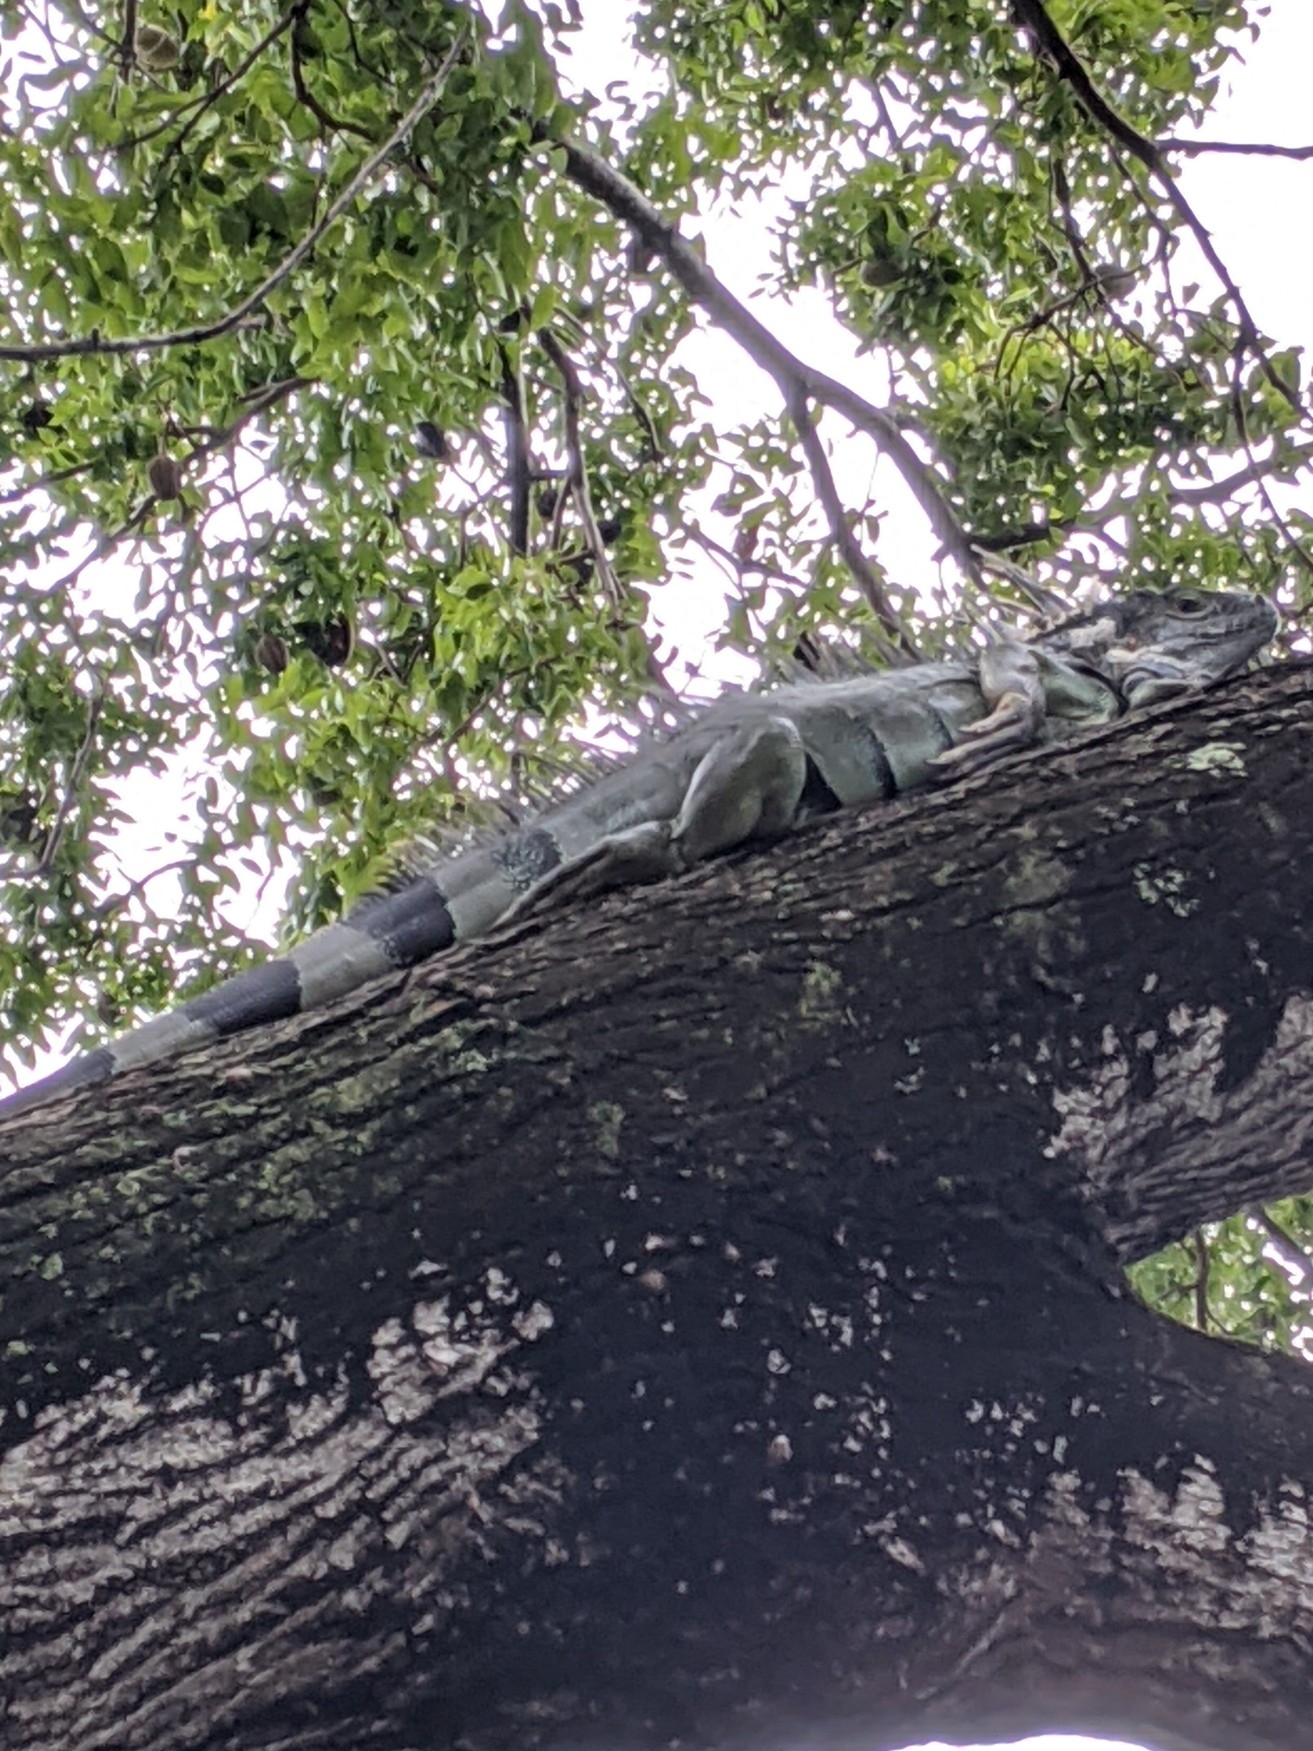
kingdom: Animalia
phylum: Chordata
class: Squamata
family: Iguanidae
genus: Iguana
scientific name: Iguana iguana
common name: Green iguana
